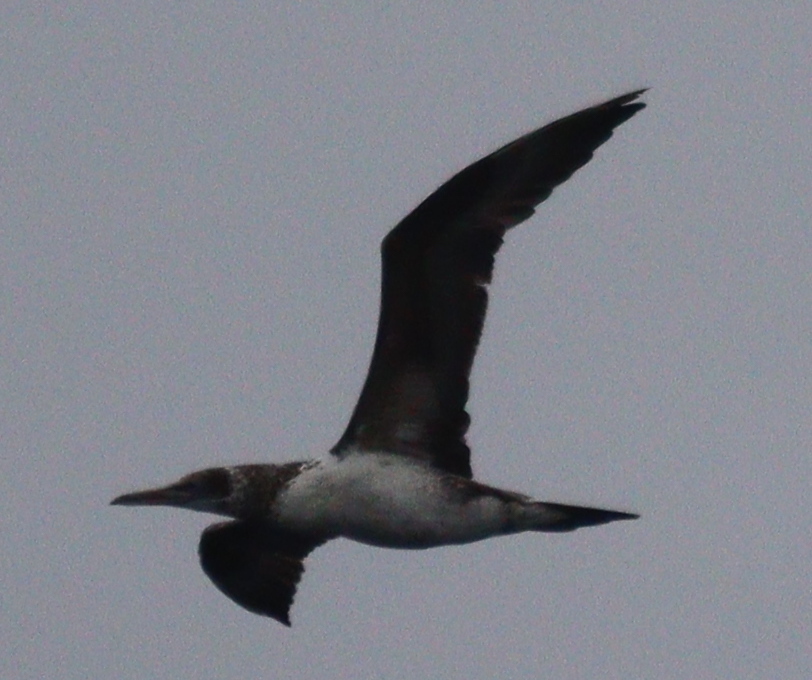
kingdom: Animalia
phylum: Chordata
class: Aves
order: Suliformes
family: Sulidae
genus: Morus
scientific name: Morus bassanus
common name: Northern gannet
